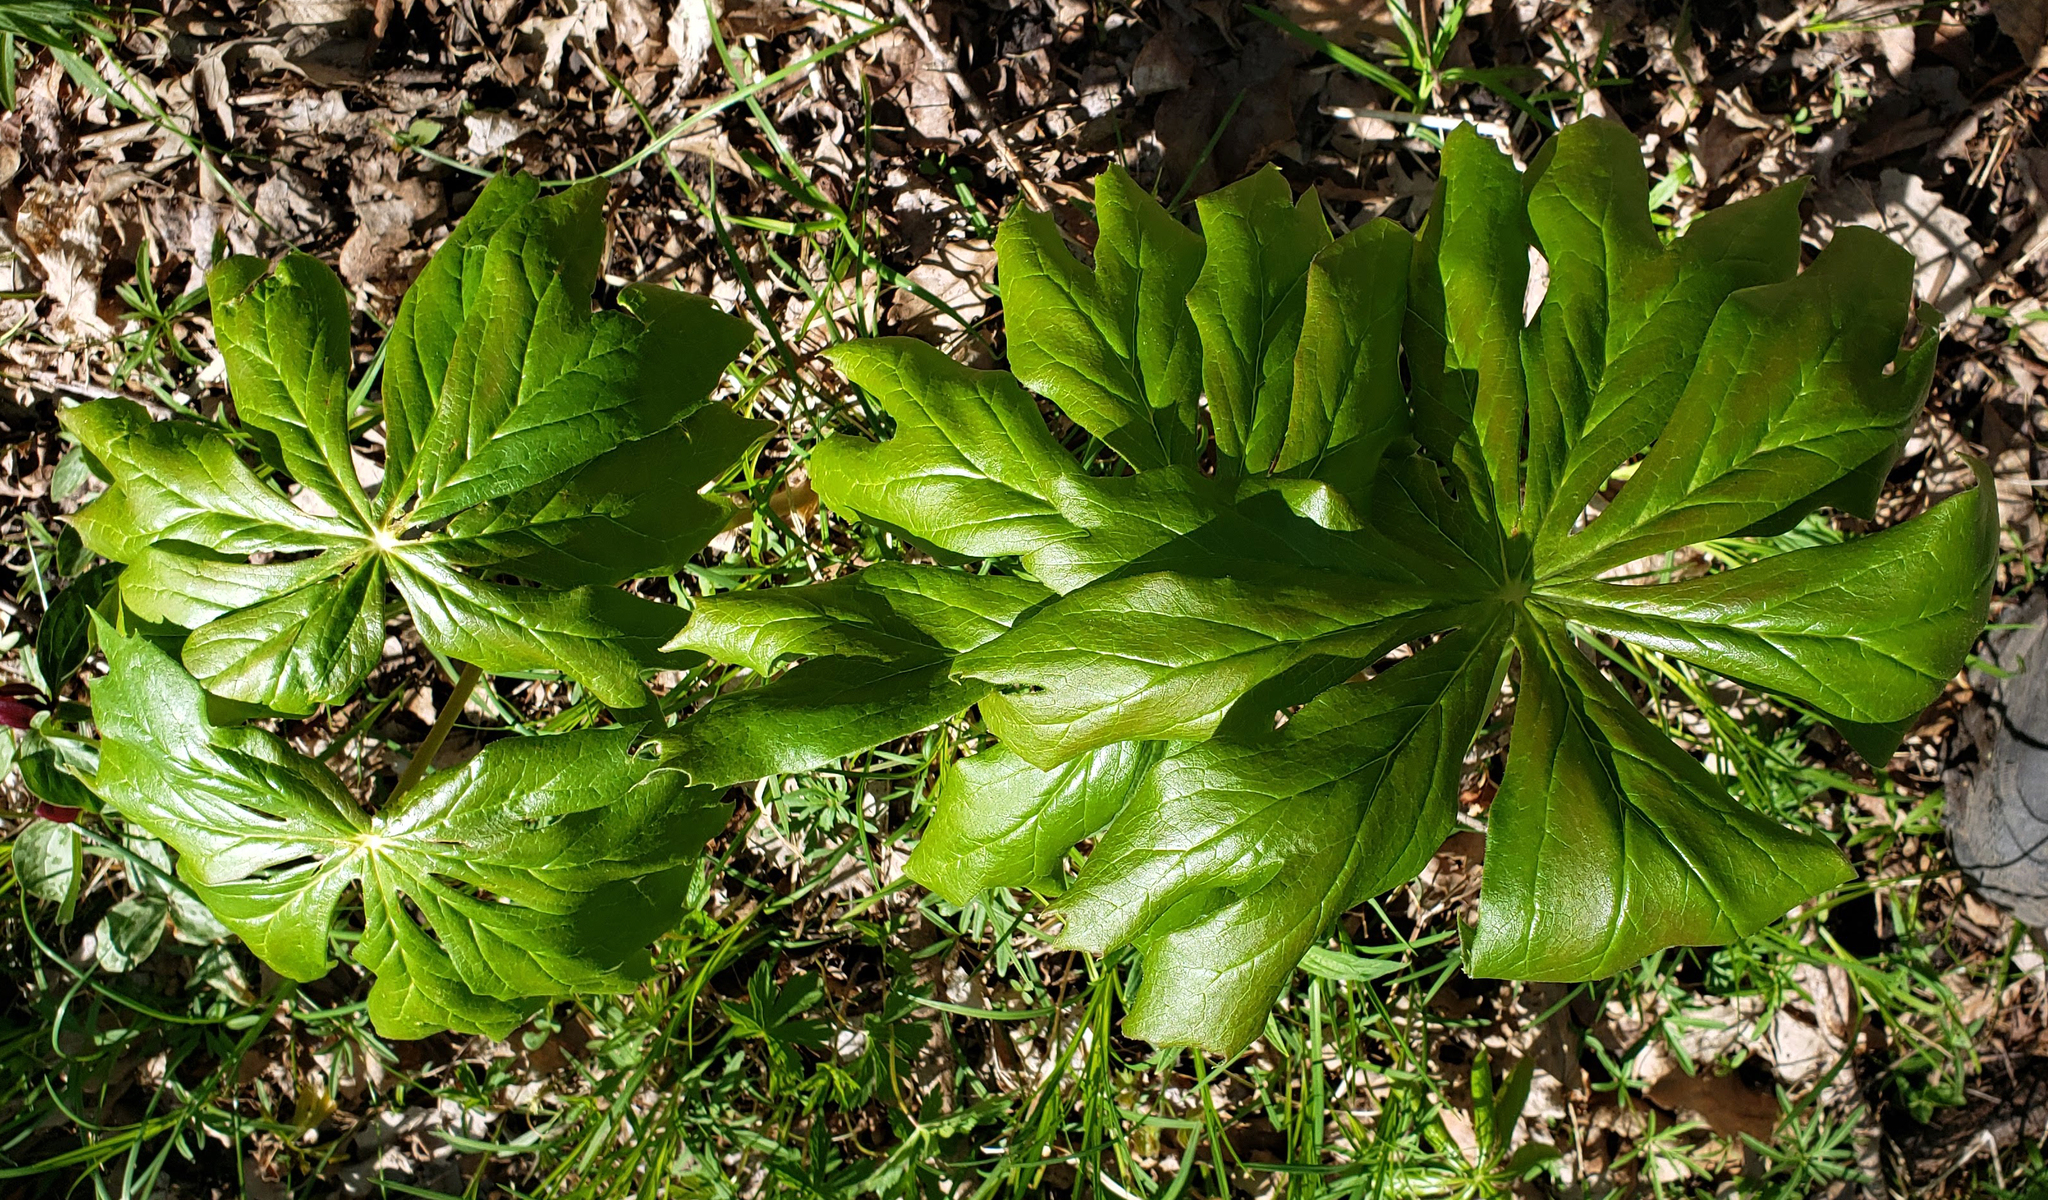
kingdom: Plantae
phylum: Tracheophyta
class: Magnoliopsida
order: Ranunculales
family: Berberidaceae
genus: Podophyllum
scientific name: Podophyllum peltatum
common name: Wild mandrake
